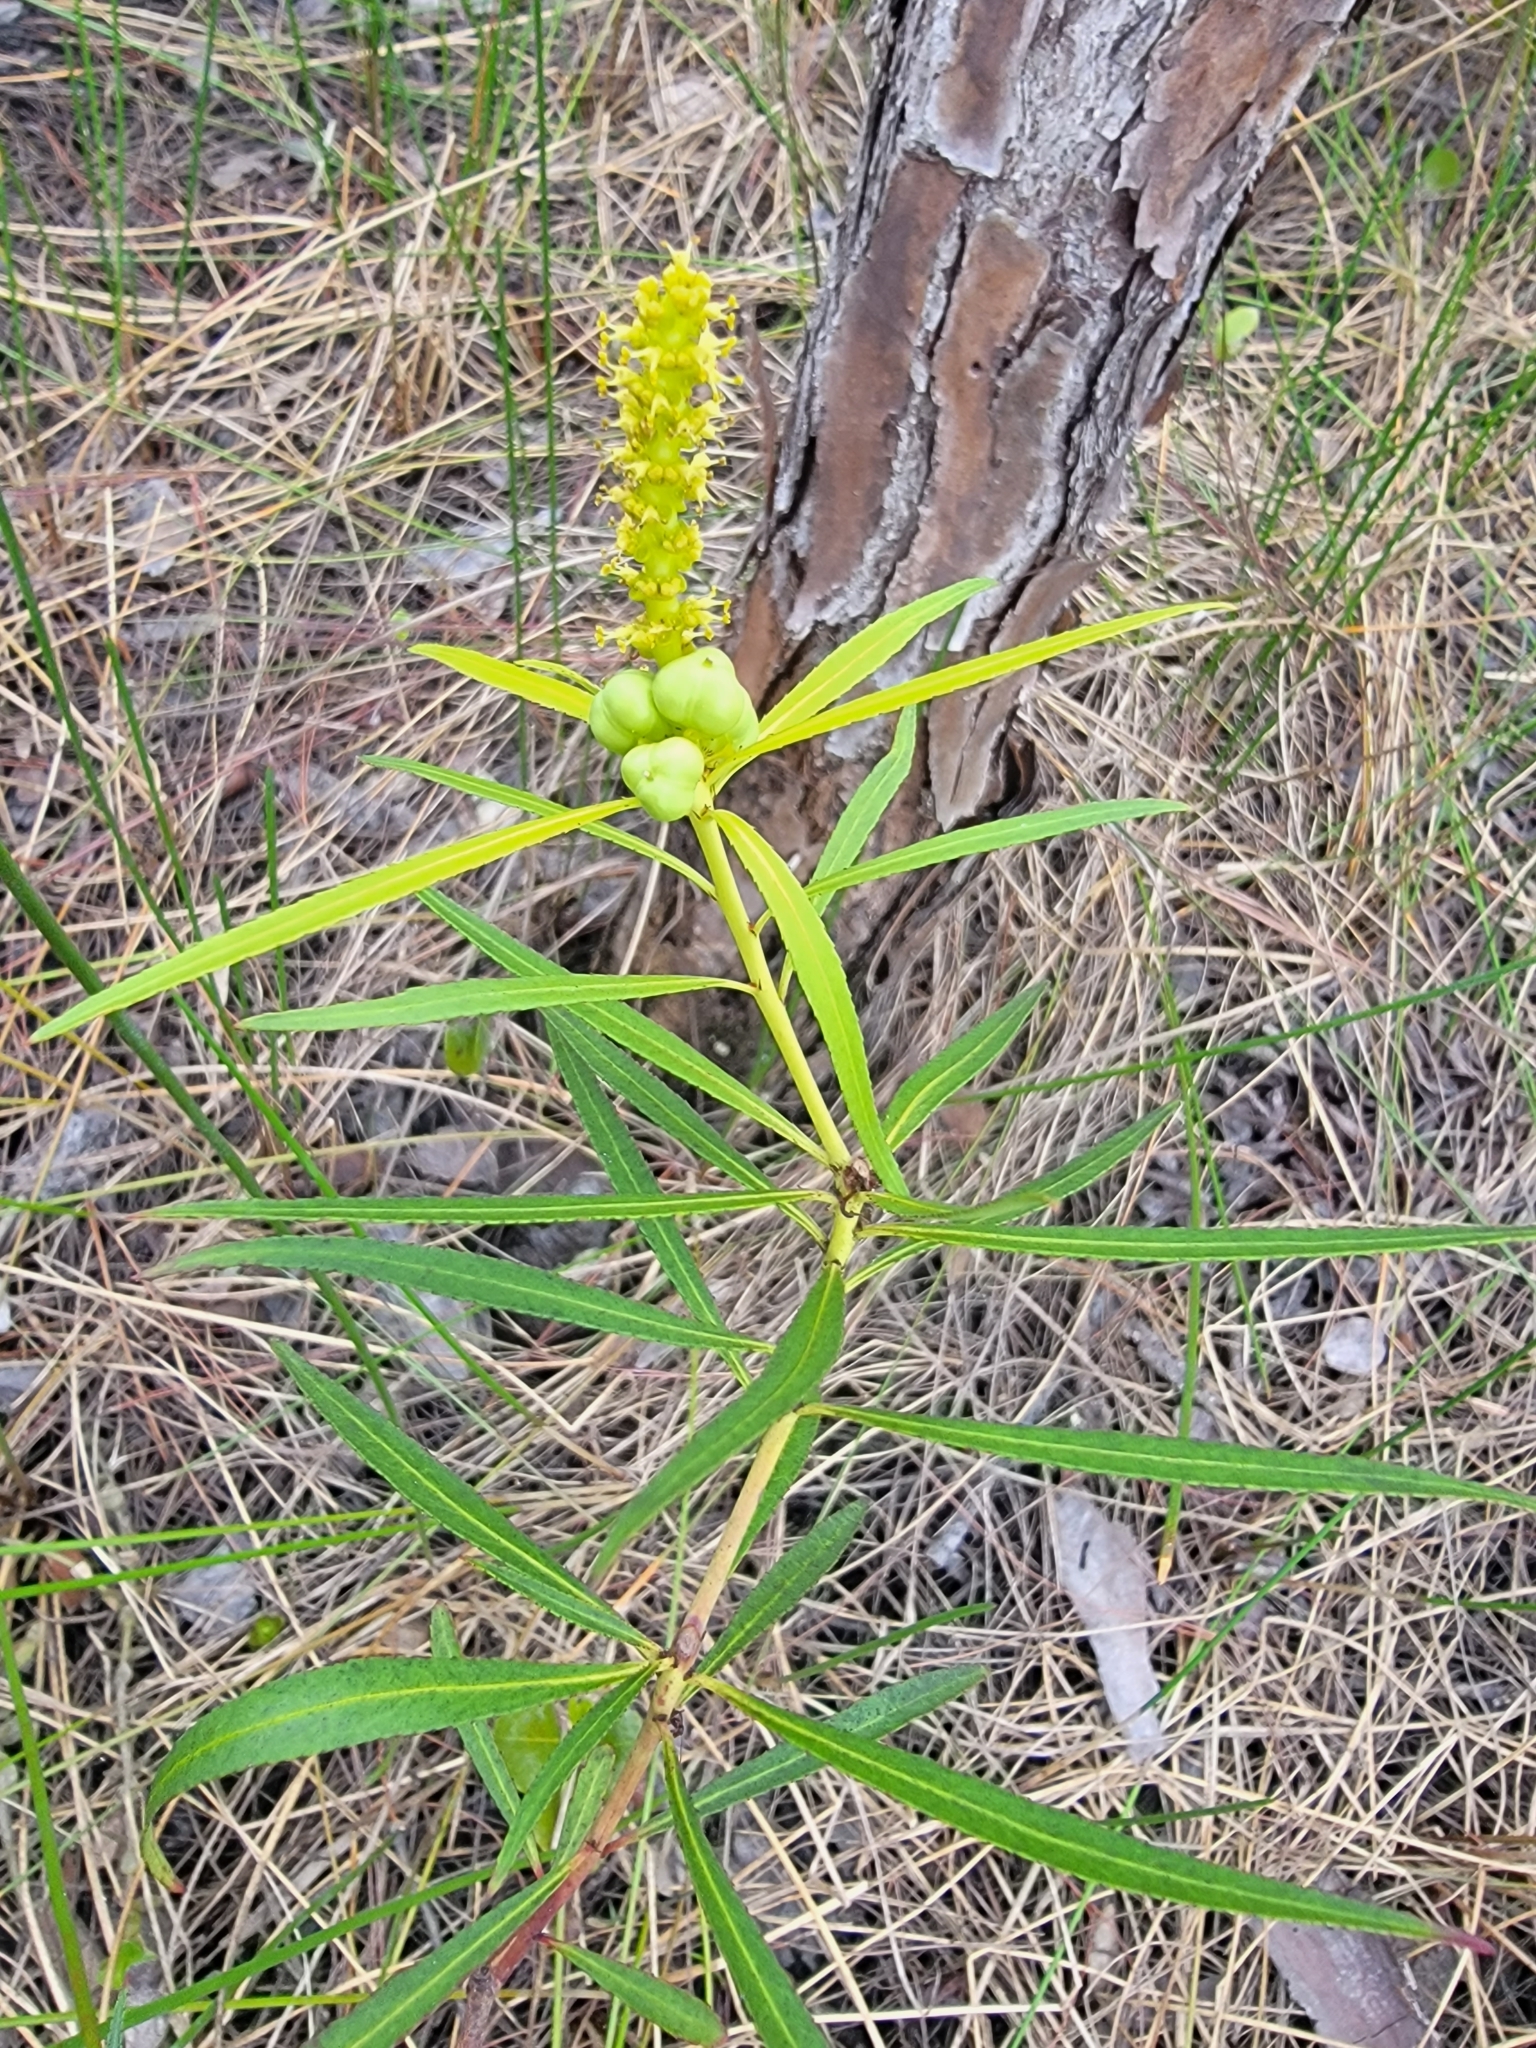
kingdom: Plantae
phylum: Tracheophyta
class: Magnoliopsida
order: Malpighiales
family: Euphorbiaceae
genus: Stillingia
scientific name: Stillingia aquatica
